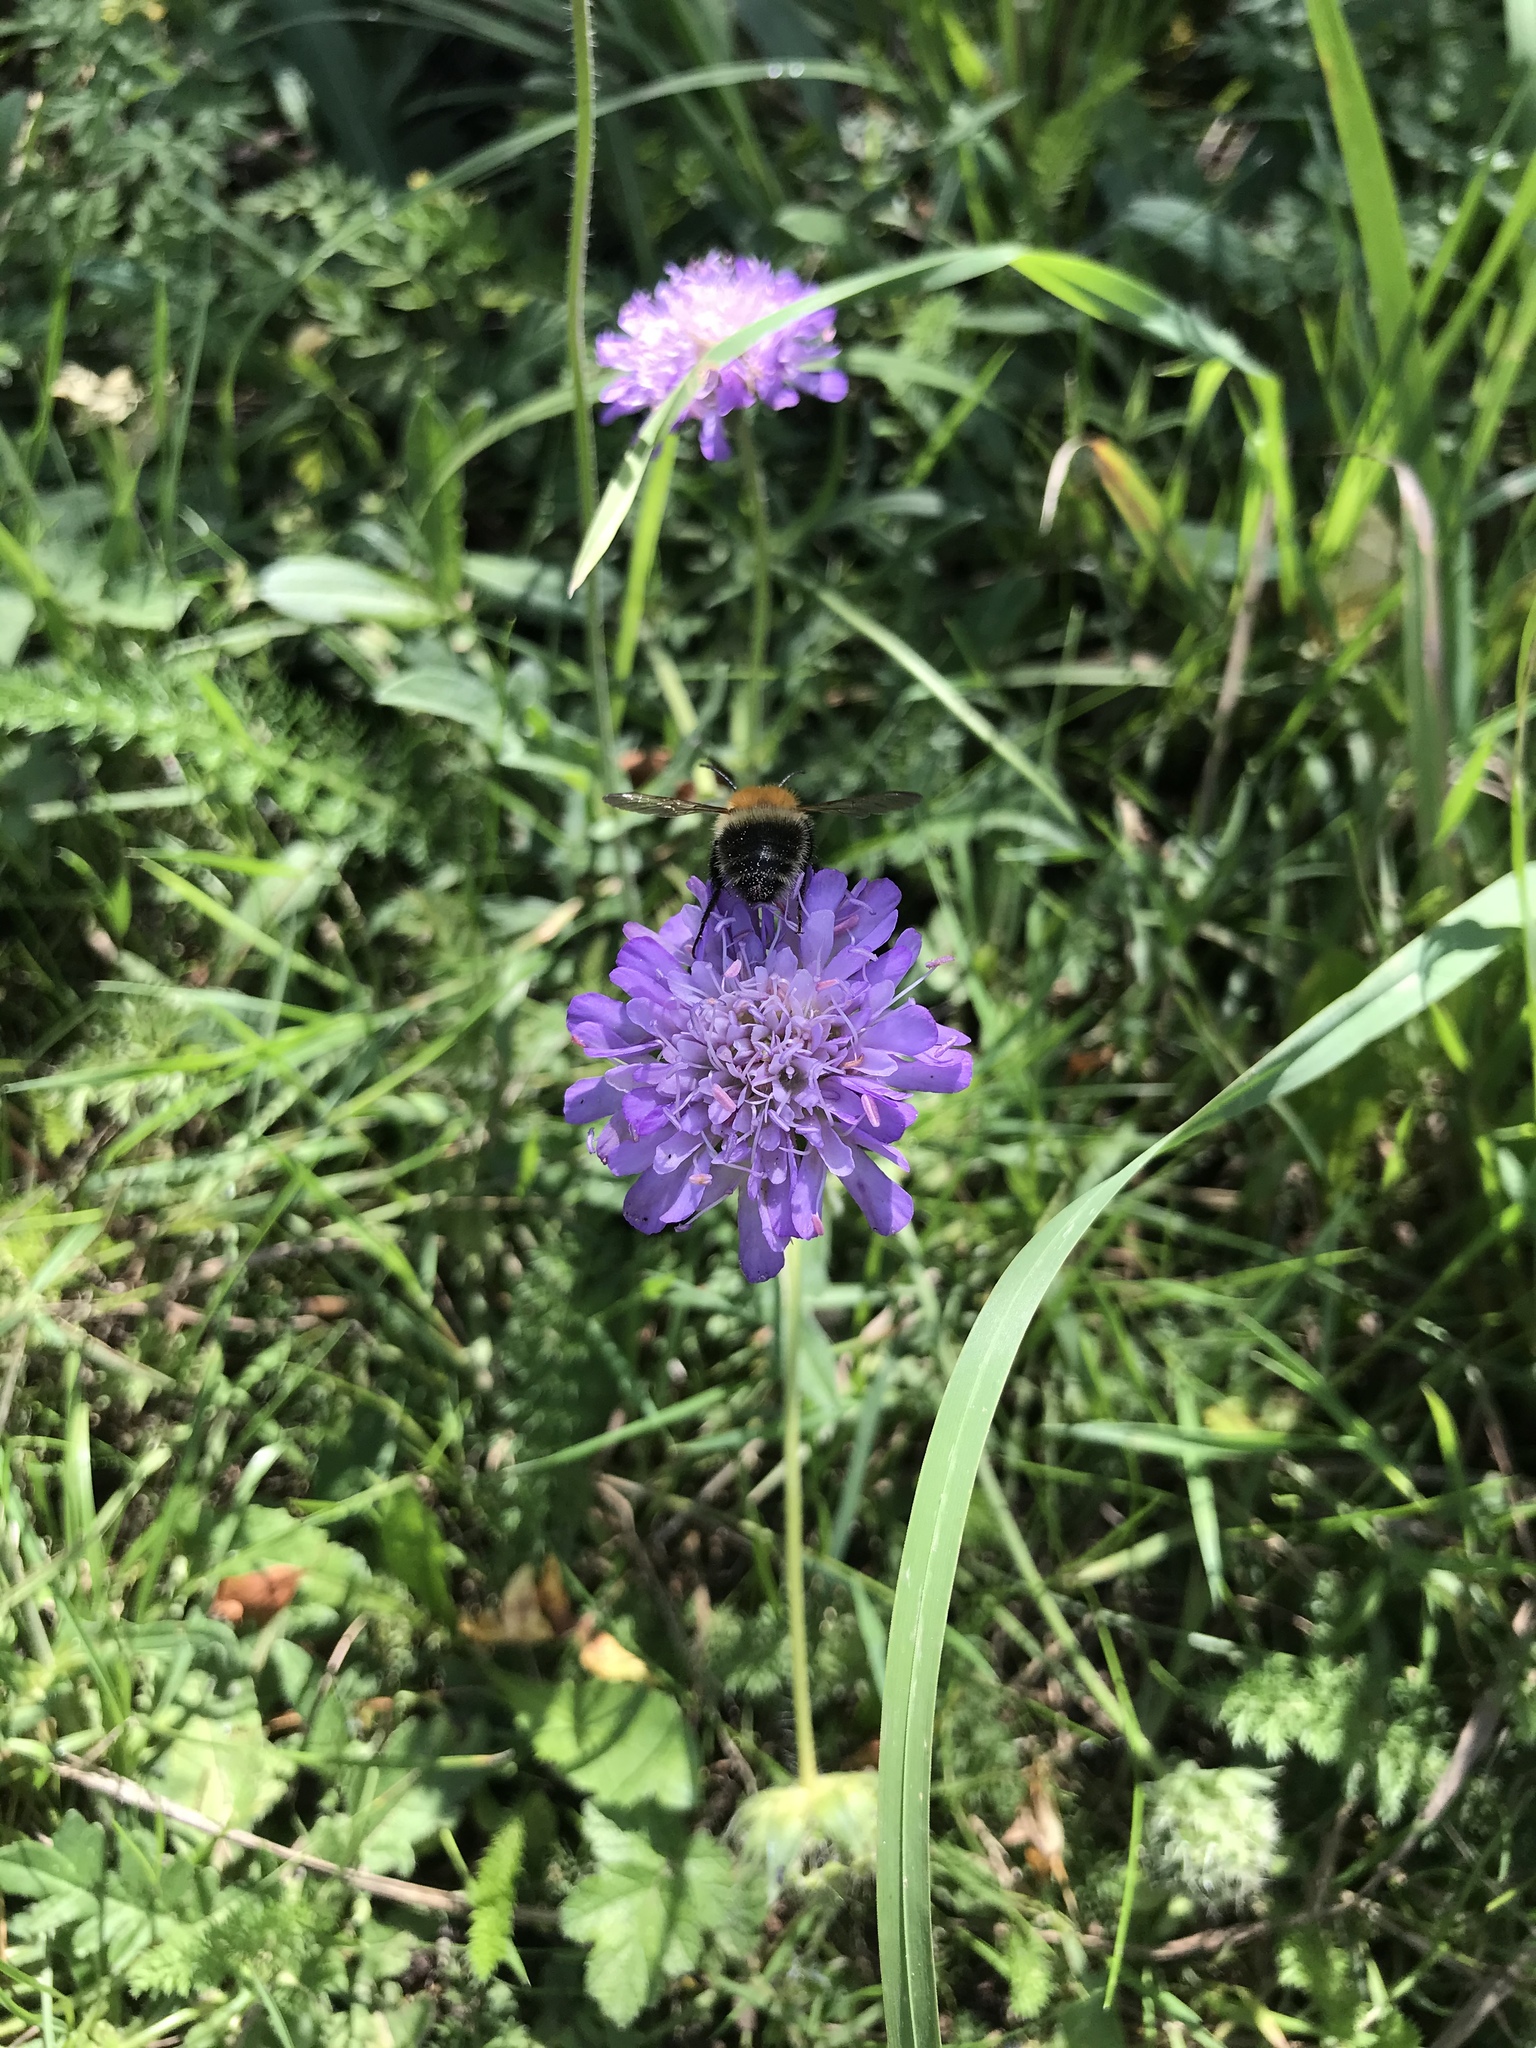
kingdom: Plantae
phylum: Tracheophyta
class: Magnoliopsida
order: Dipsacales
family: Caprifoliaceae
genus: Knautia
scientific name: Knautia arvensis
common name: Field scabiosa
